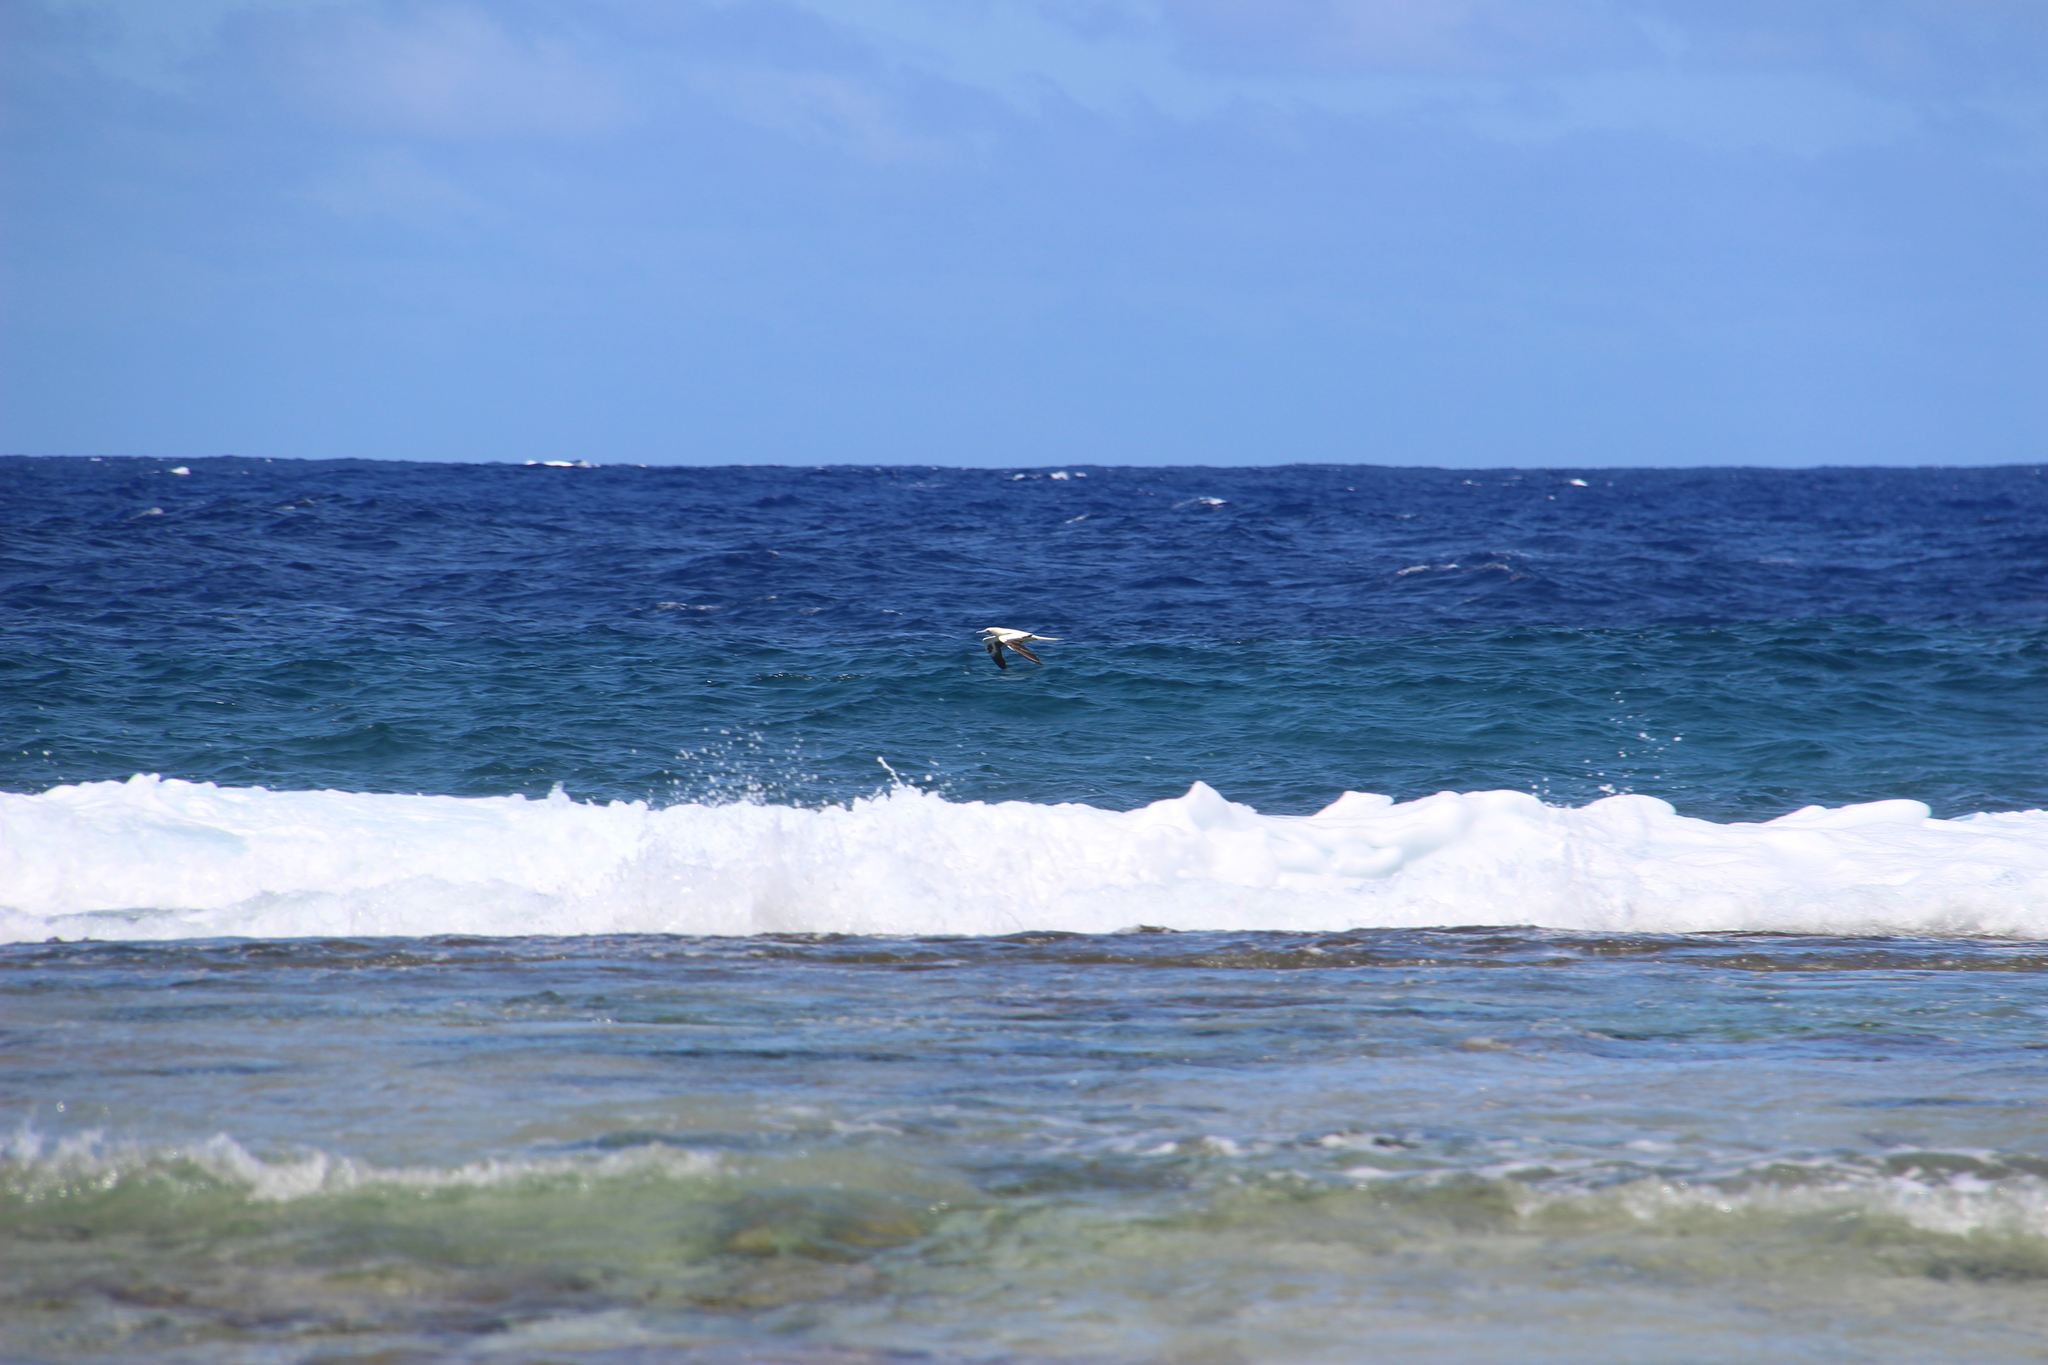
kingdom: Animalia
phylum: Chordata
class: Aves
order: Suliformes
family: Sulidae
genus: Sula
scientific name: Sula sula
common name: Red-footed booby
